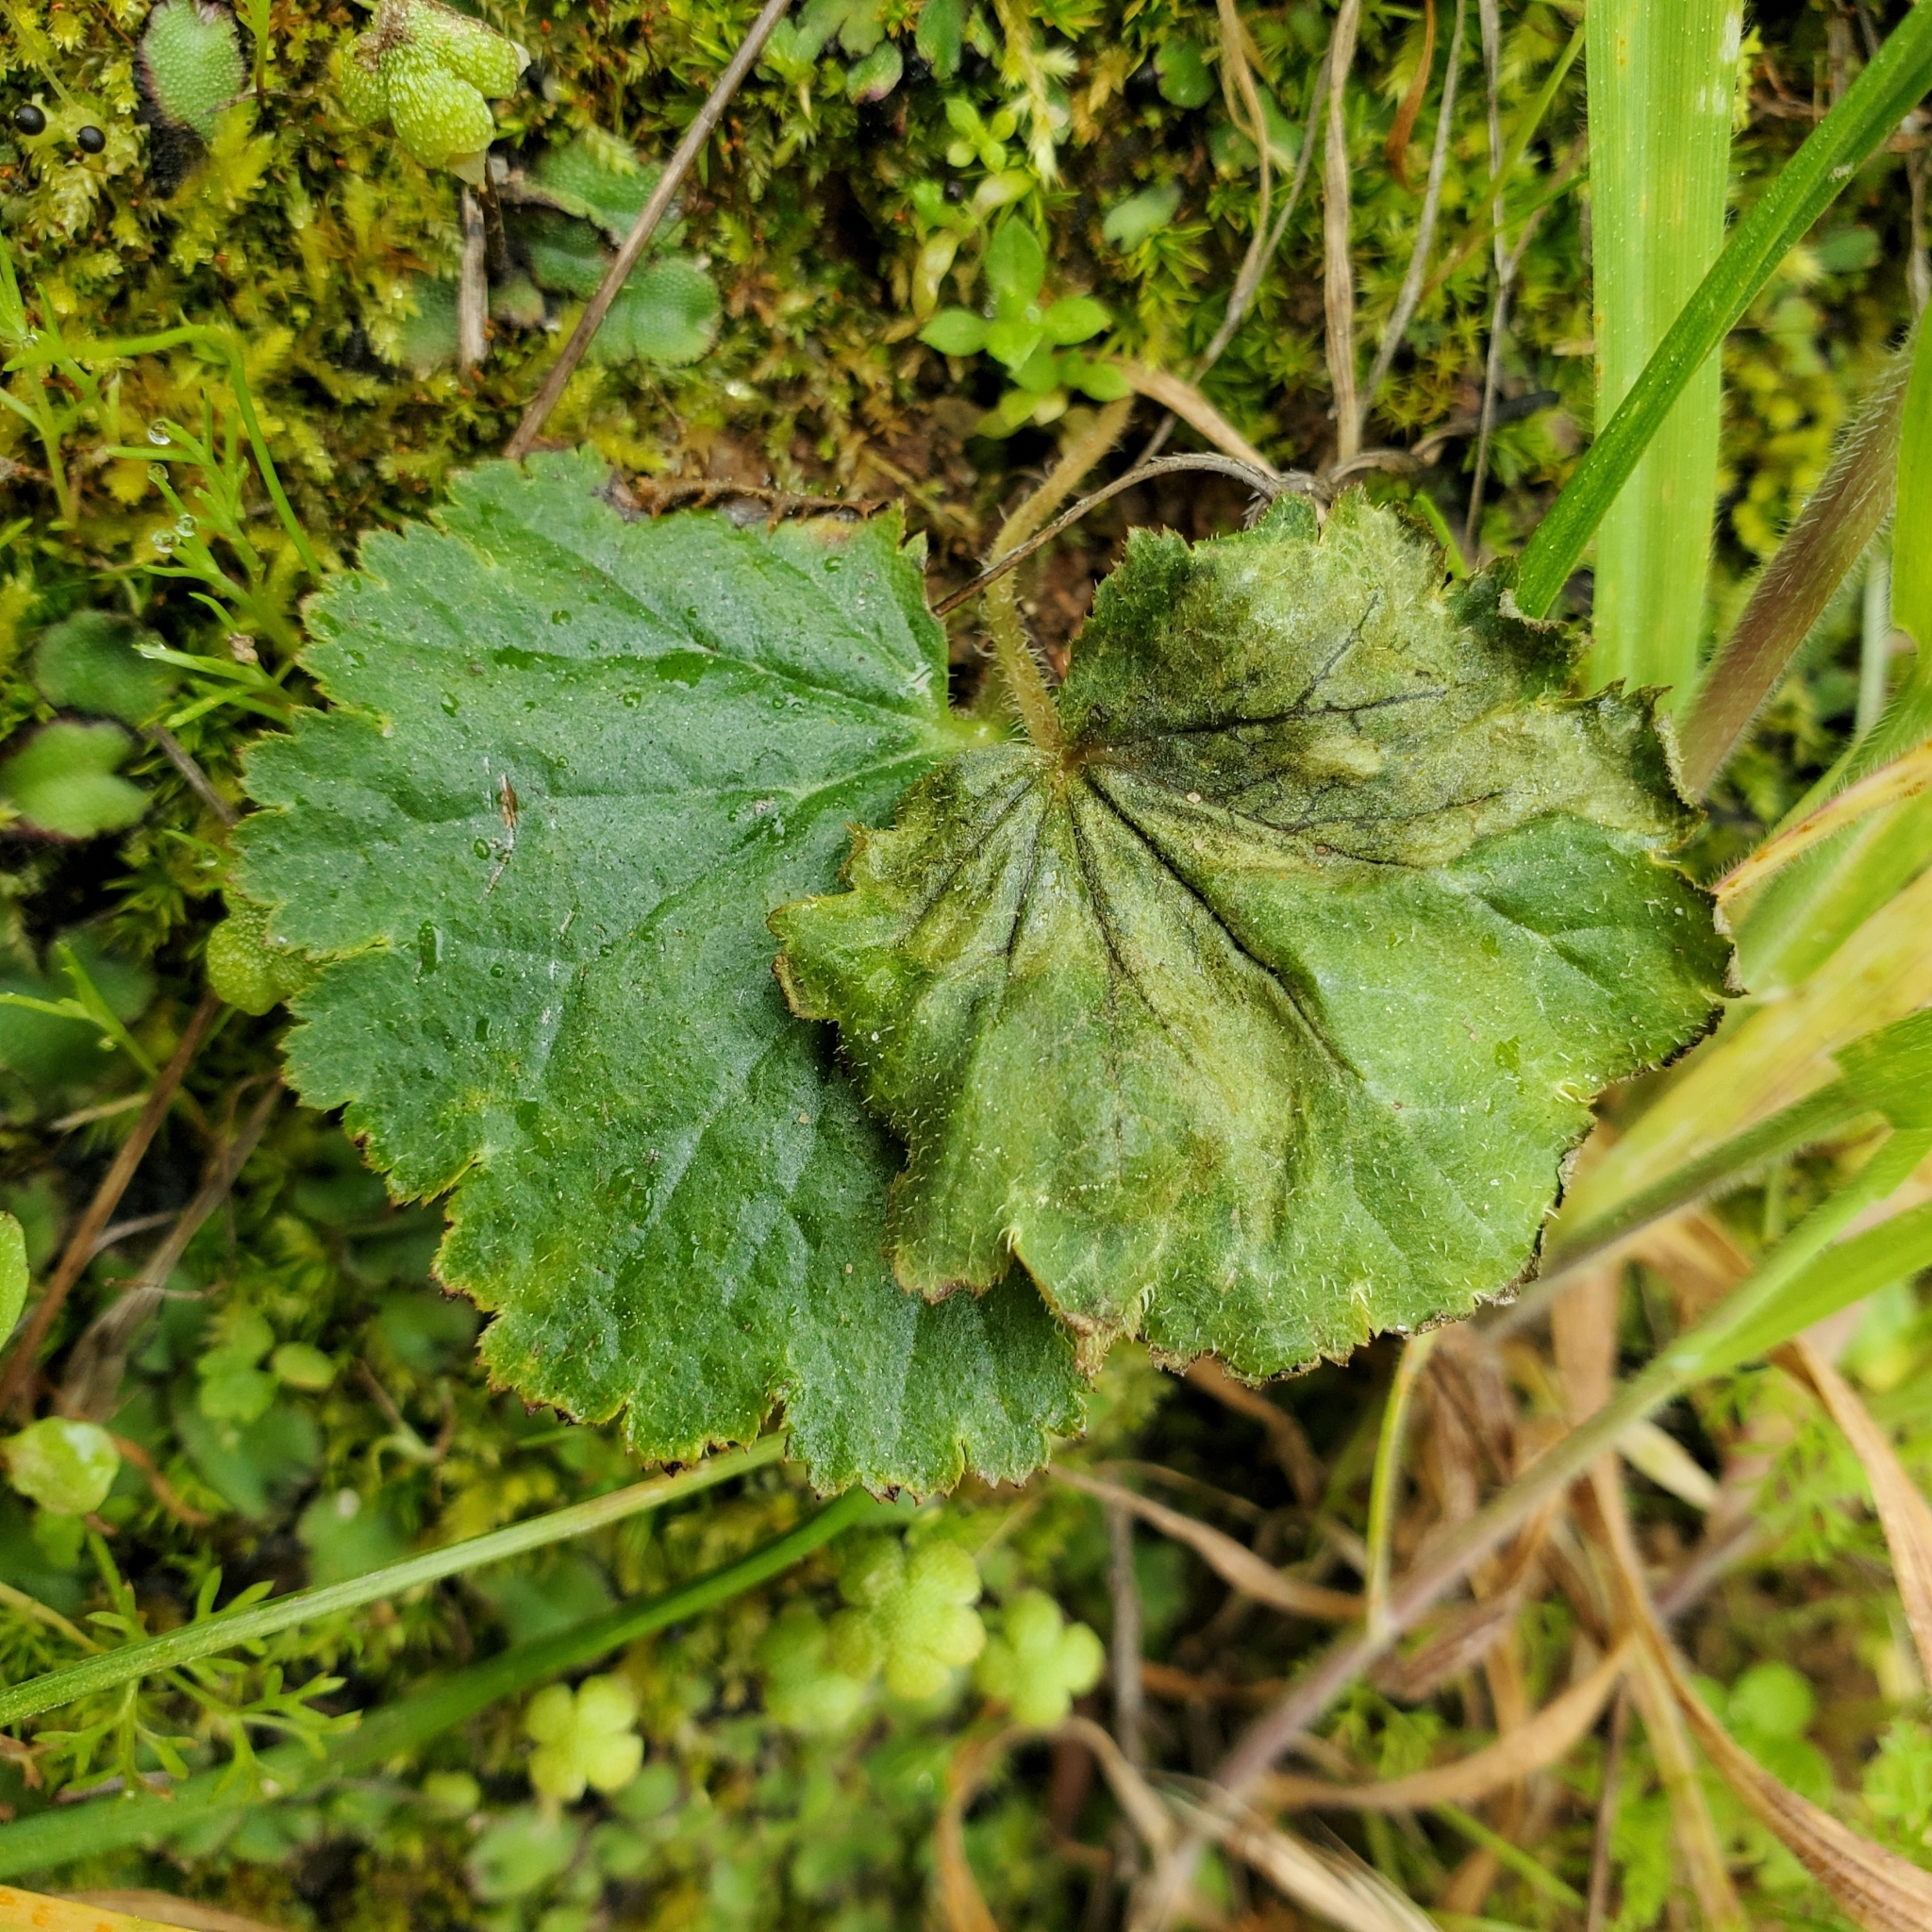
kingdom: Plantae
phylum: Tracheophyta
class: Magnoliopsida
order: Saxifragales
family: Saxifragaceae
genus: Jepsonia
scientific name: Jepsonia parryi
